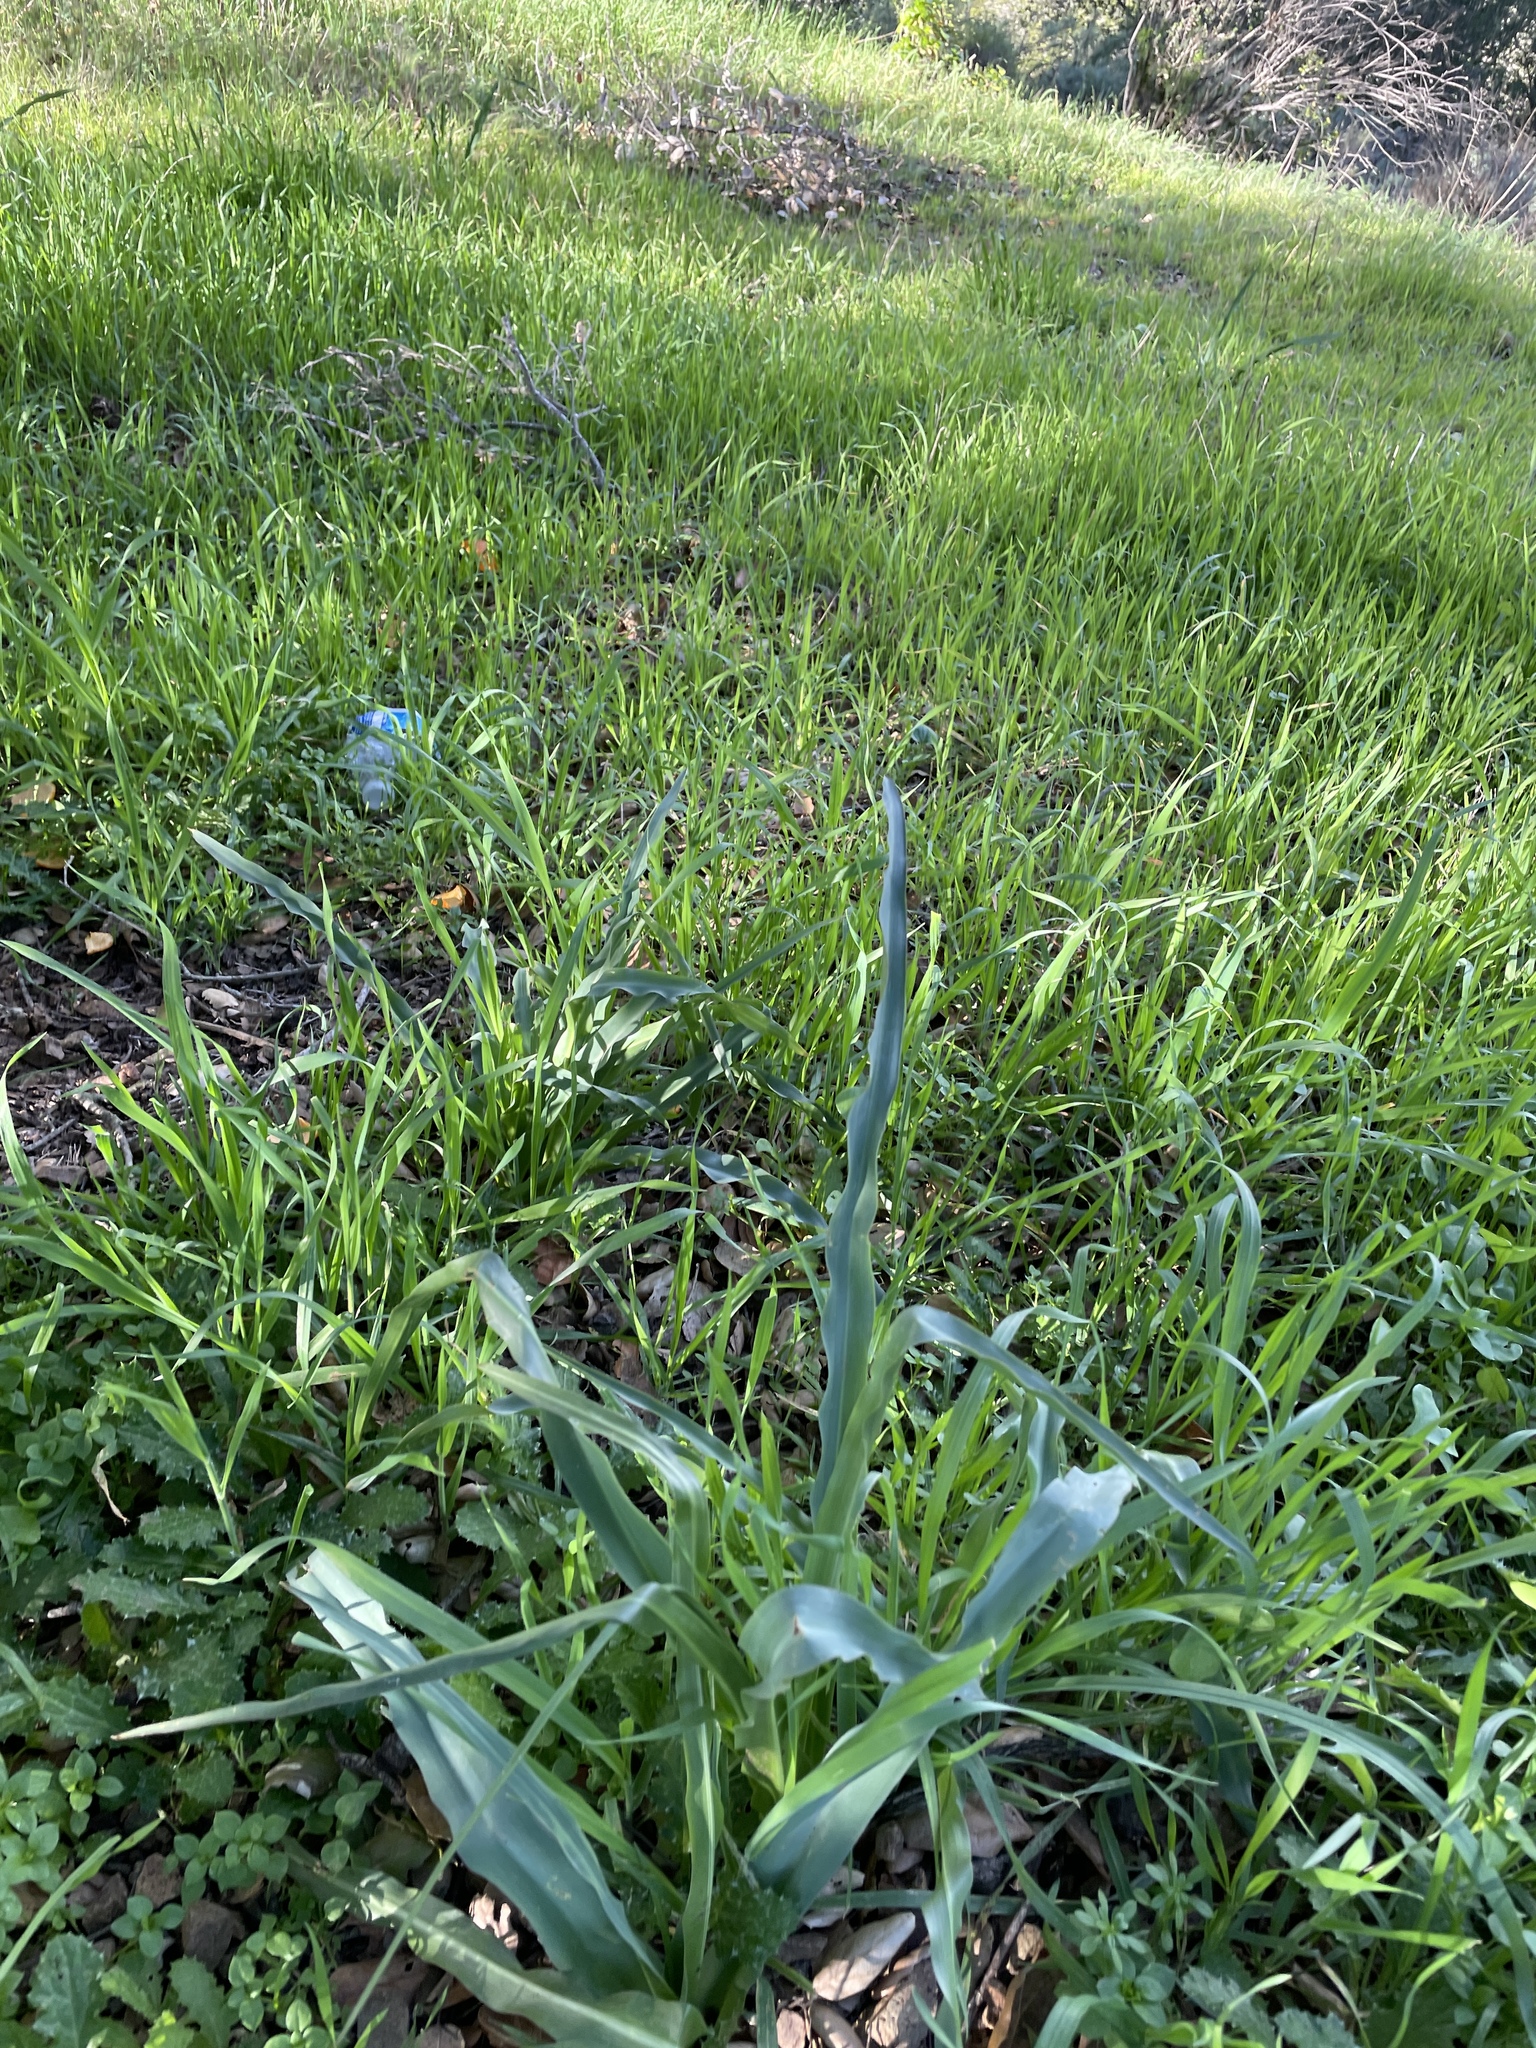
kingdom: Plantae
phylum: Tracheophyta
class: Liliopsida
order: Asparagales
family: Asparagaceae
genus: Chlorogalum
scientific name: Chlorogalum pomeridianum
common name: Amole
